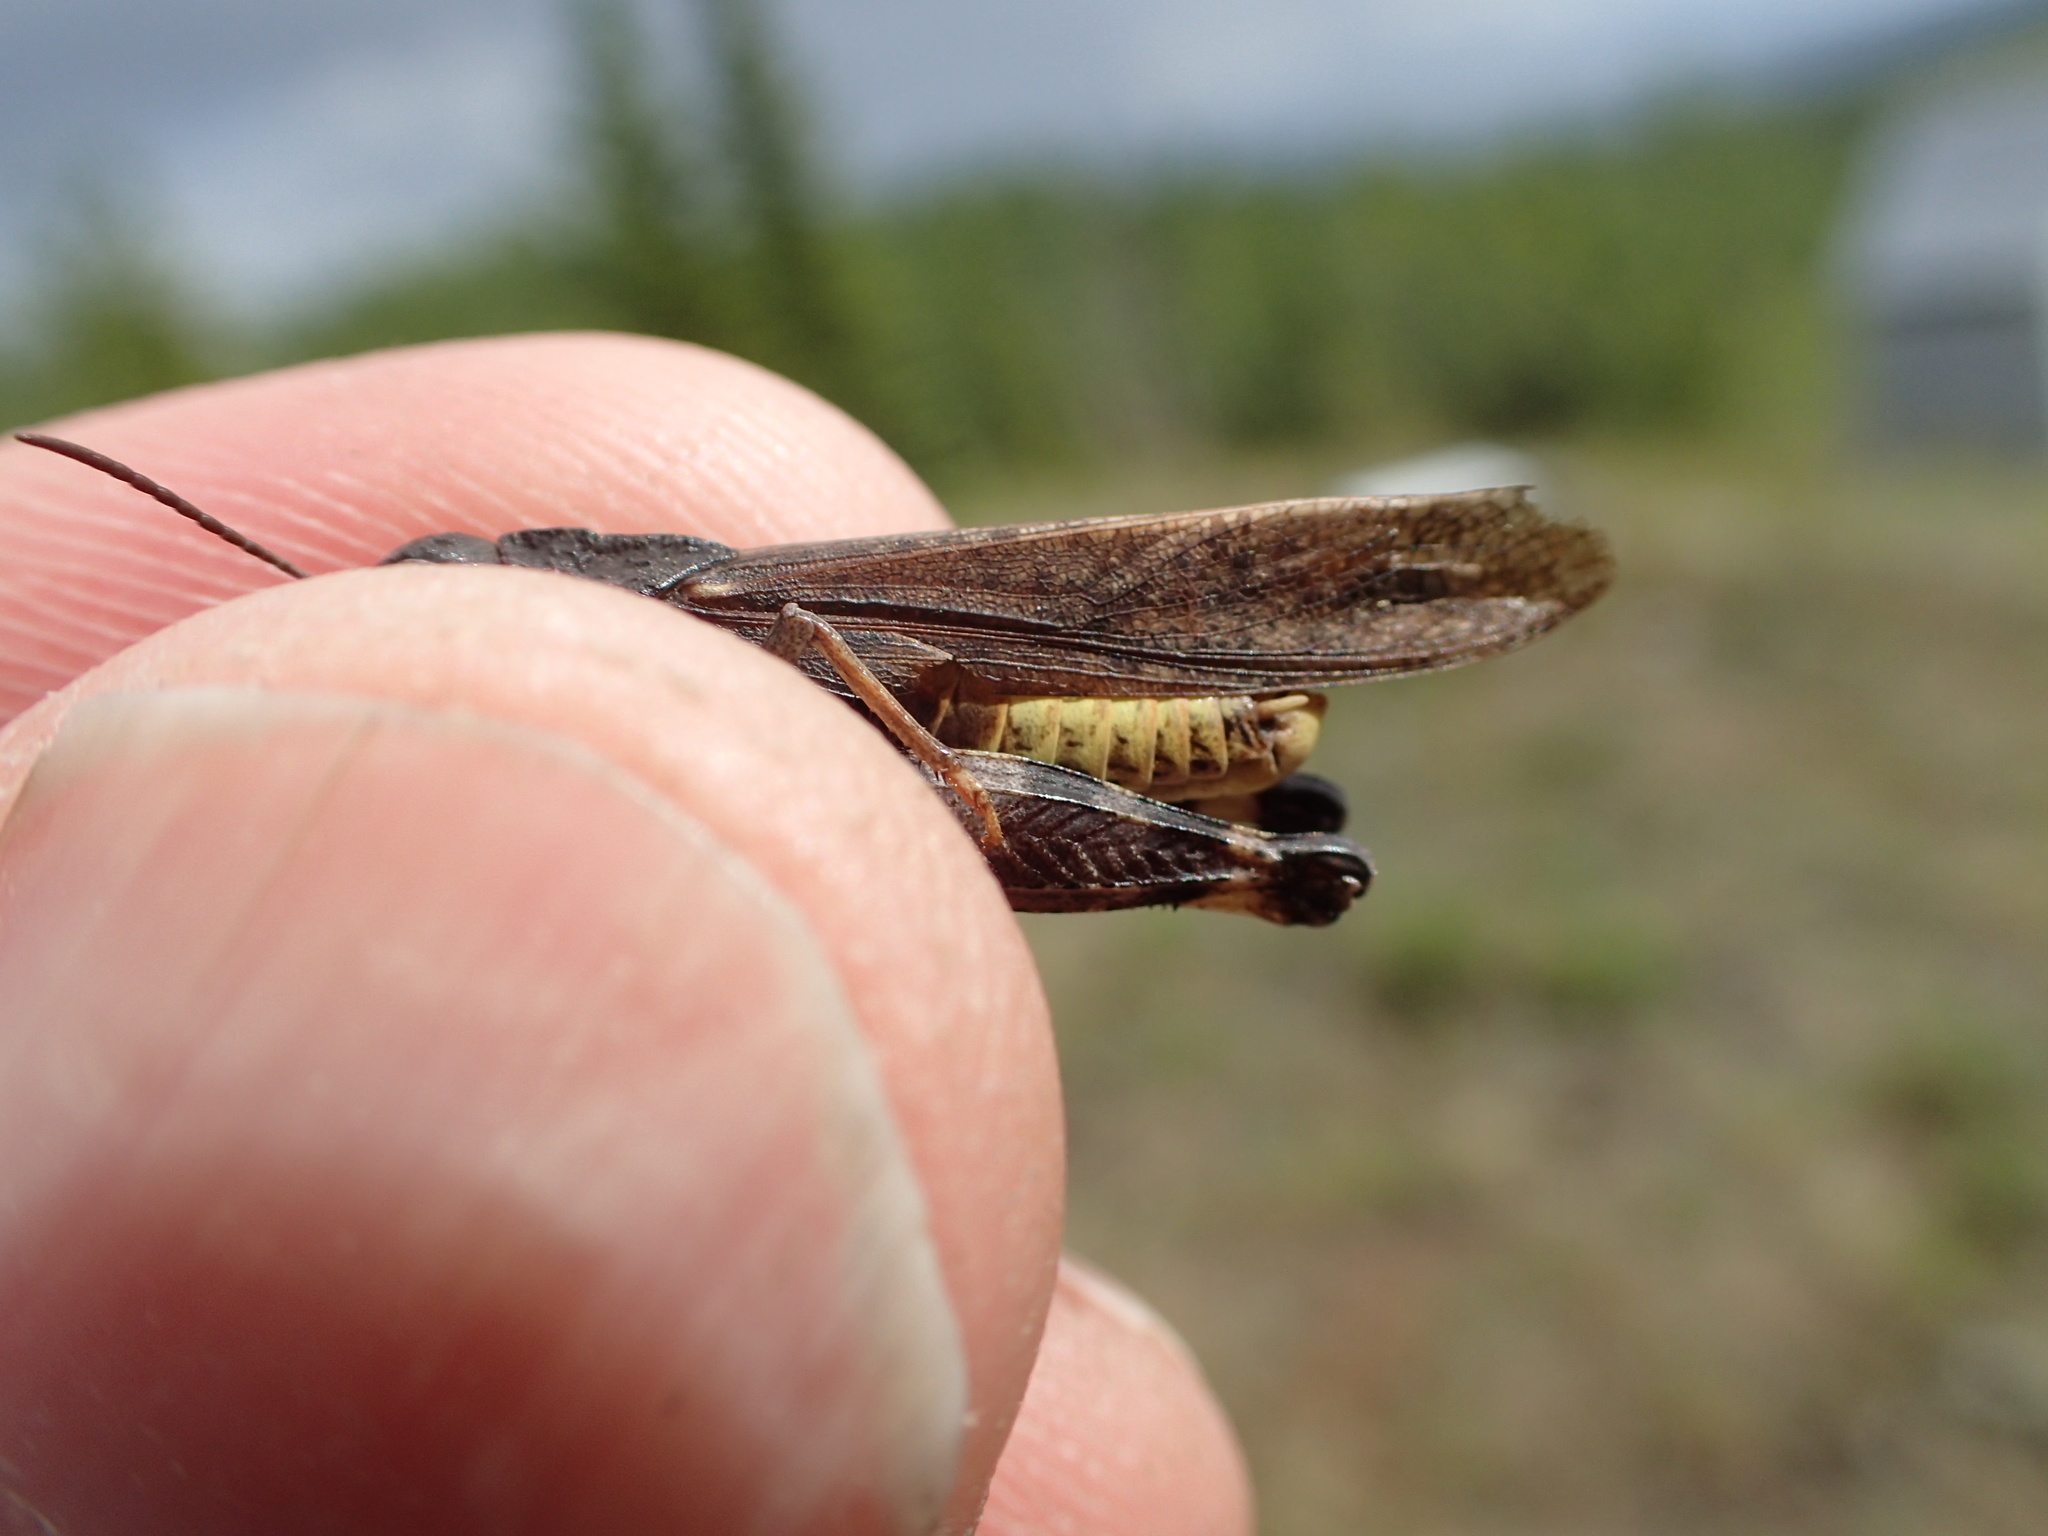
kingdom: Animalia
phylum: Arthropoda
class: Insecta
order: Orthoptera
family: Acrididae
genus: Arphia
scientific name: Arphia conspersa
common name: Speckle-winged rangeland grasshopper
